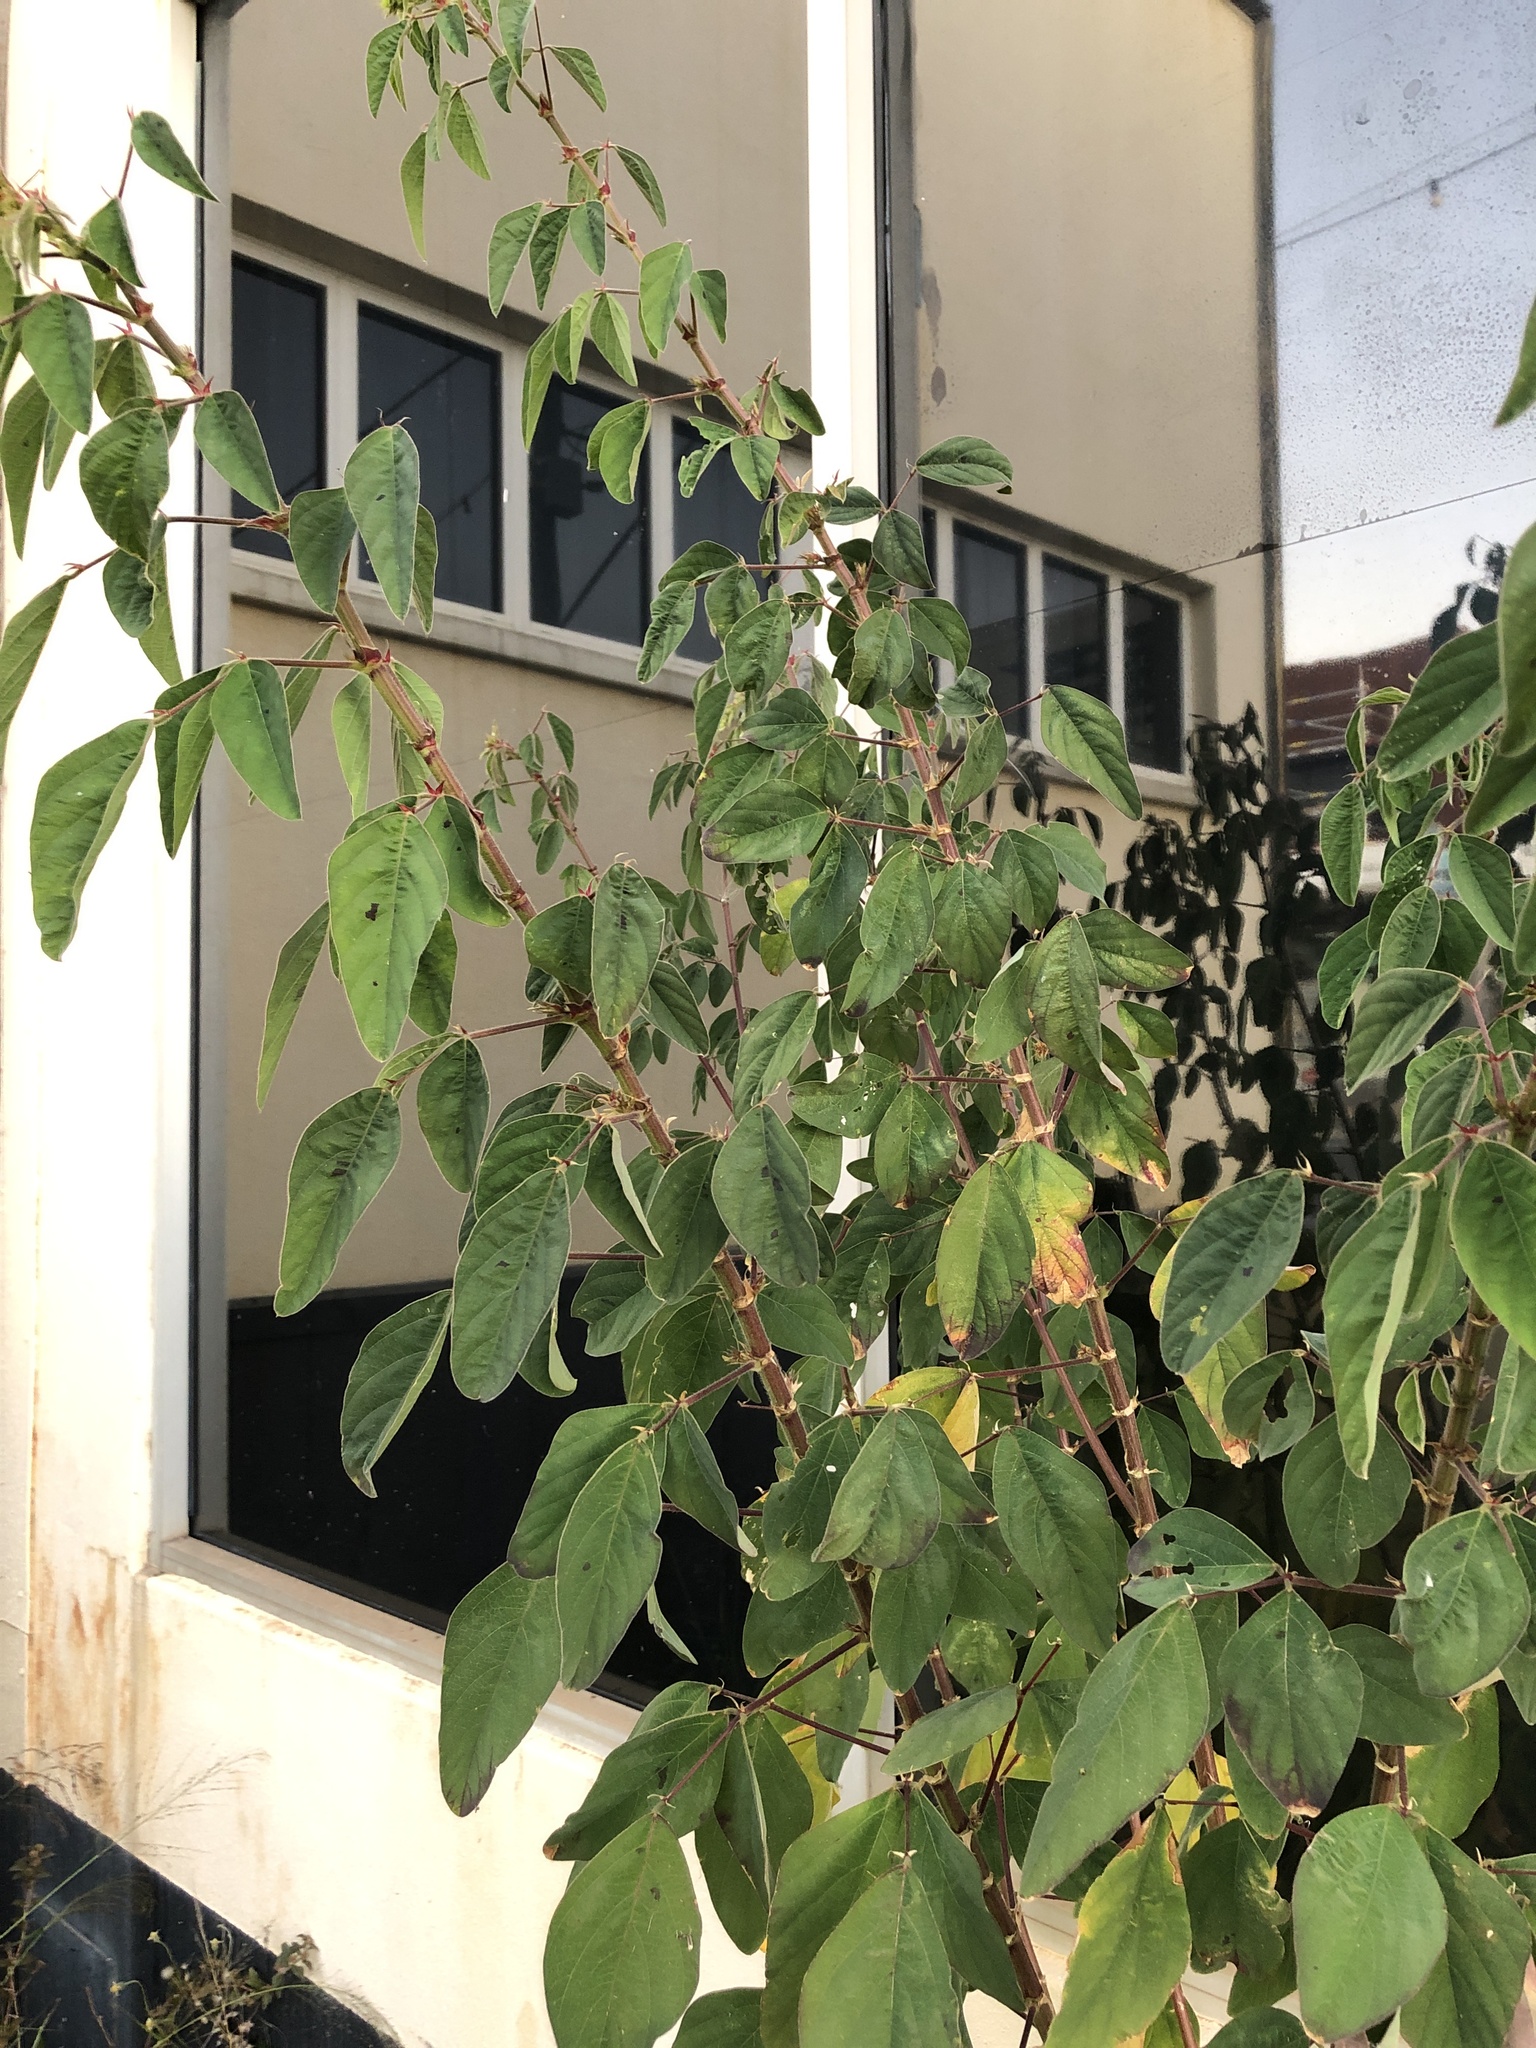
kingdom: Plantae
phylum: Tracheophyta
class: Magnoliopsida
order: Fabales
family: Fabaceae
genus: Desmodium
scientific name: Desmodium tortuosum
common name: Dixie ticktrefoil
